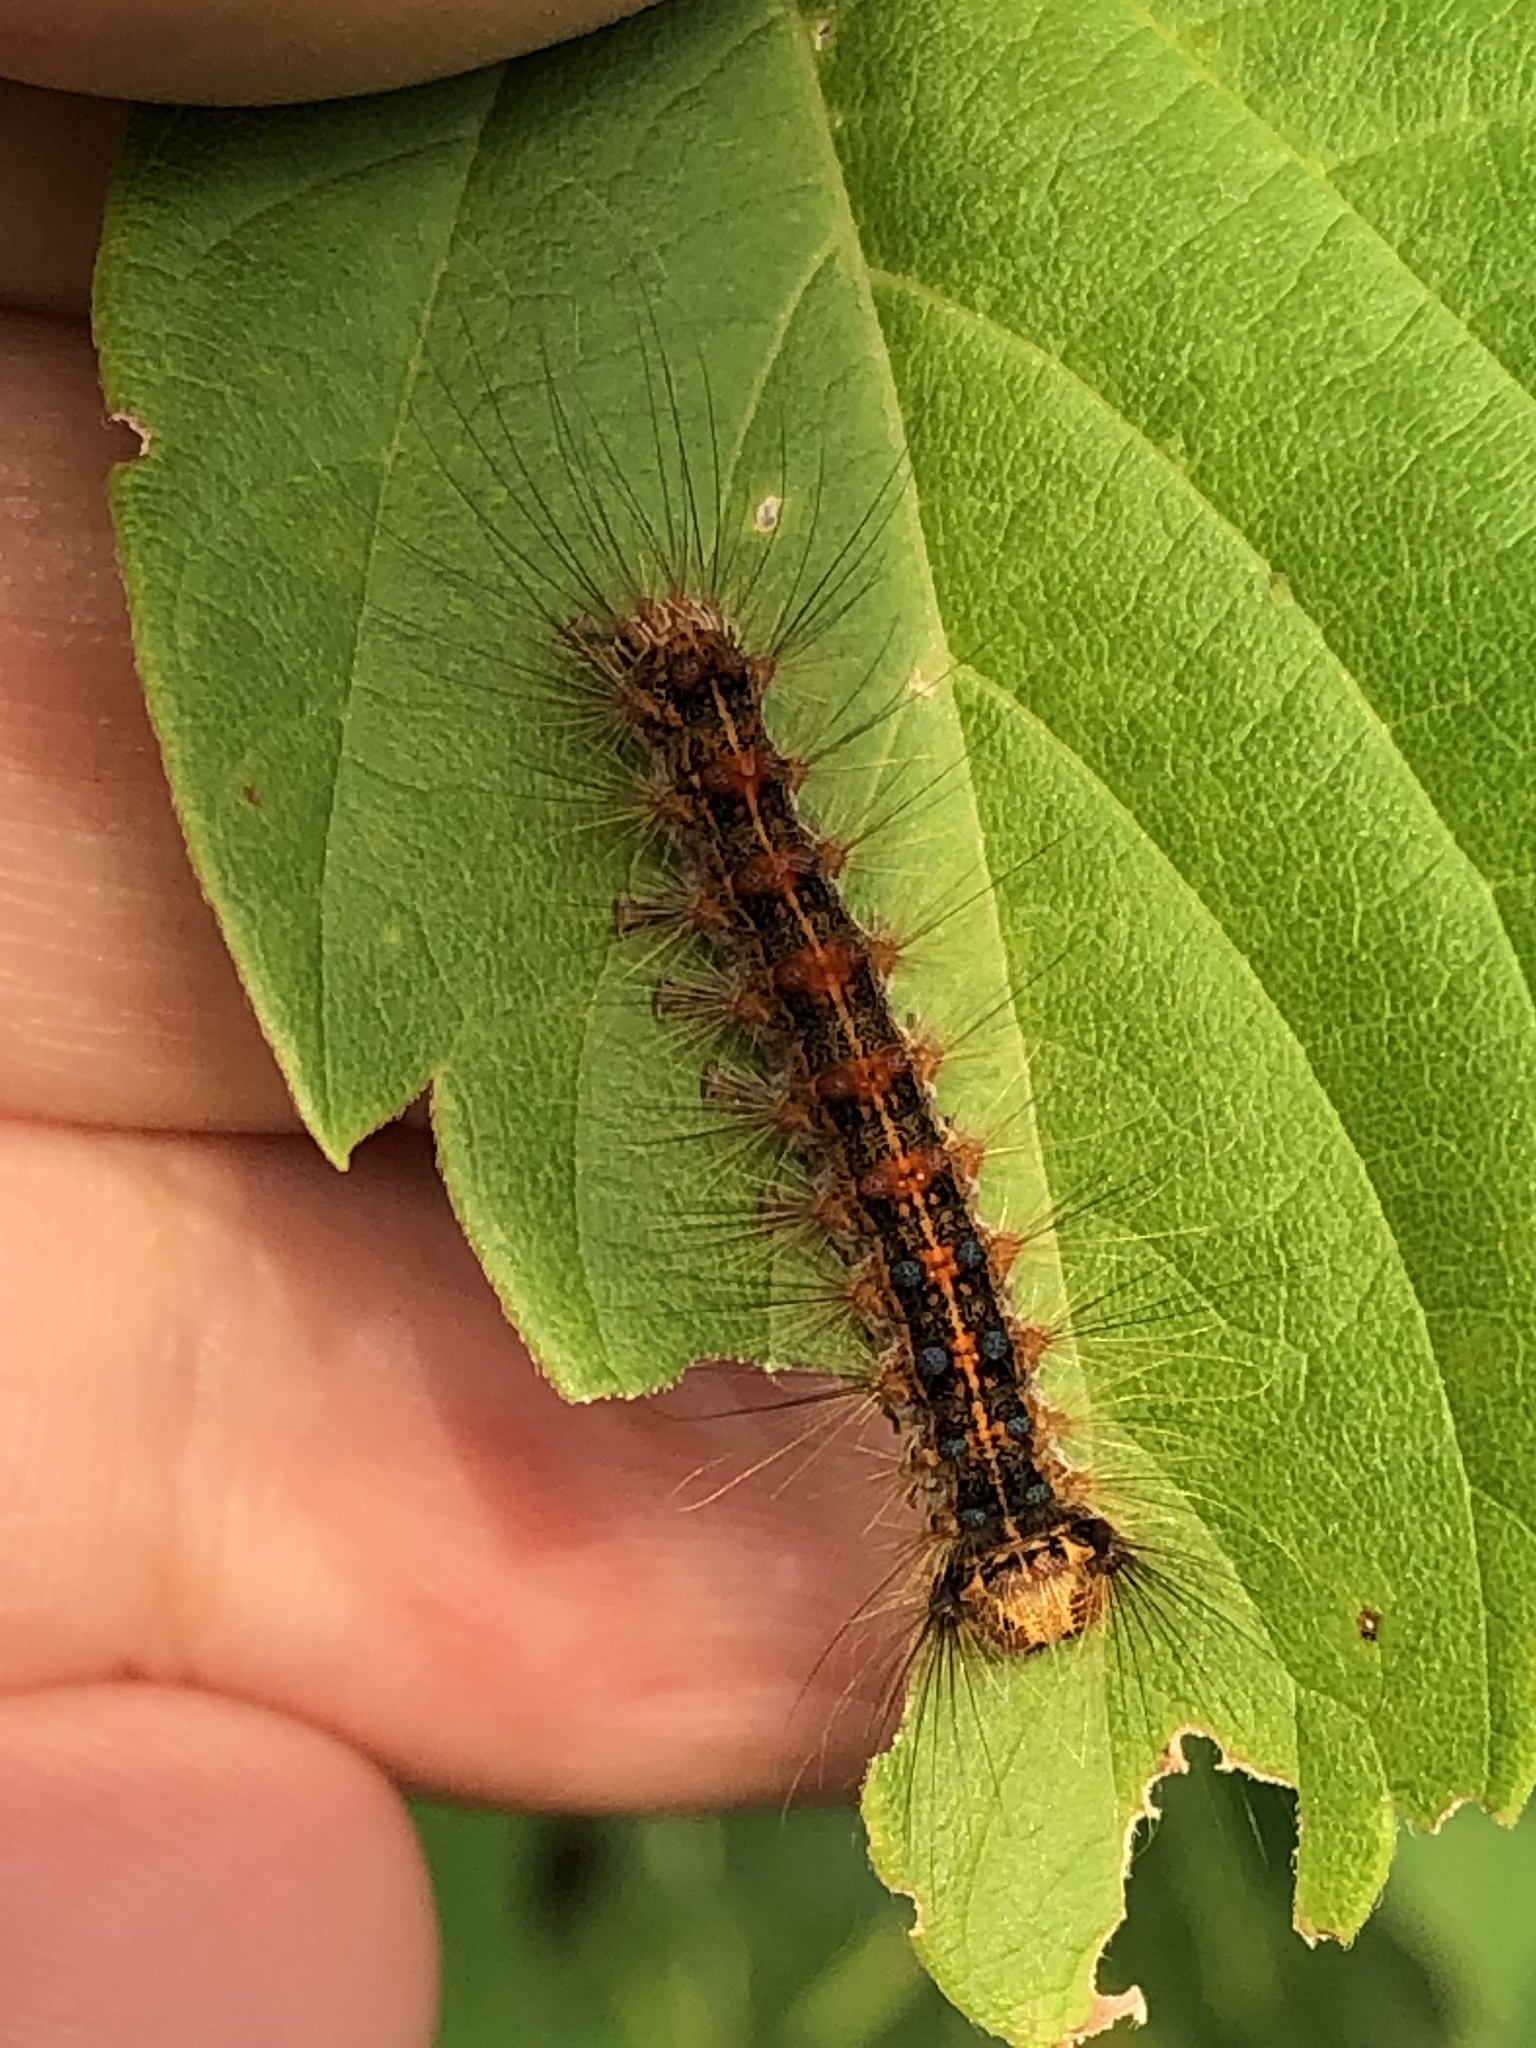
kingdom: Animalia
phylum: Arthropoda
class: Insecta
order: Lepidoptera
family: Erebidae
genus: Lymantria
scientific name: Lymantria dispar
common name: Gypsy moth
